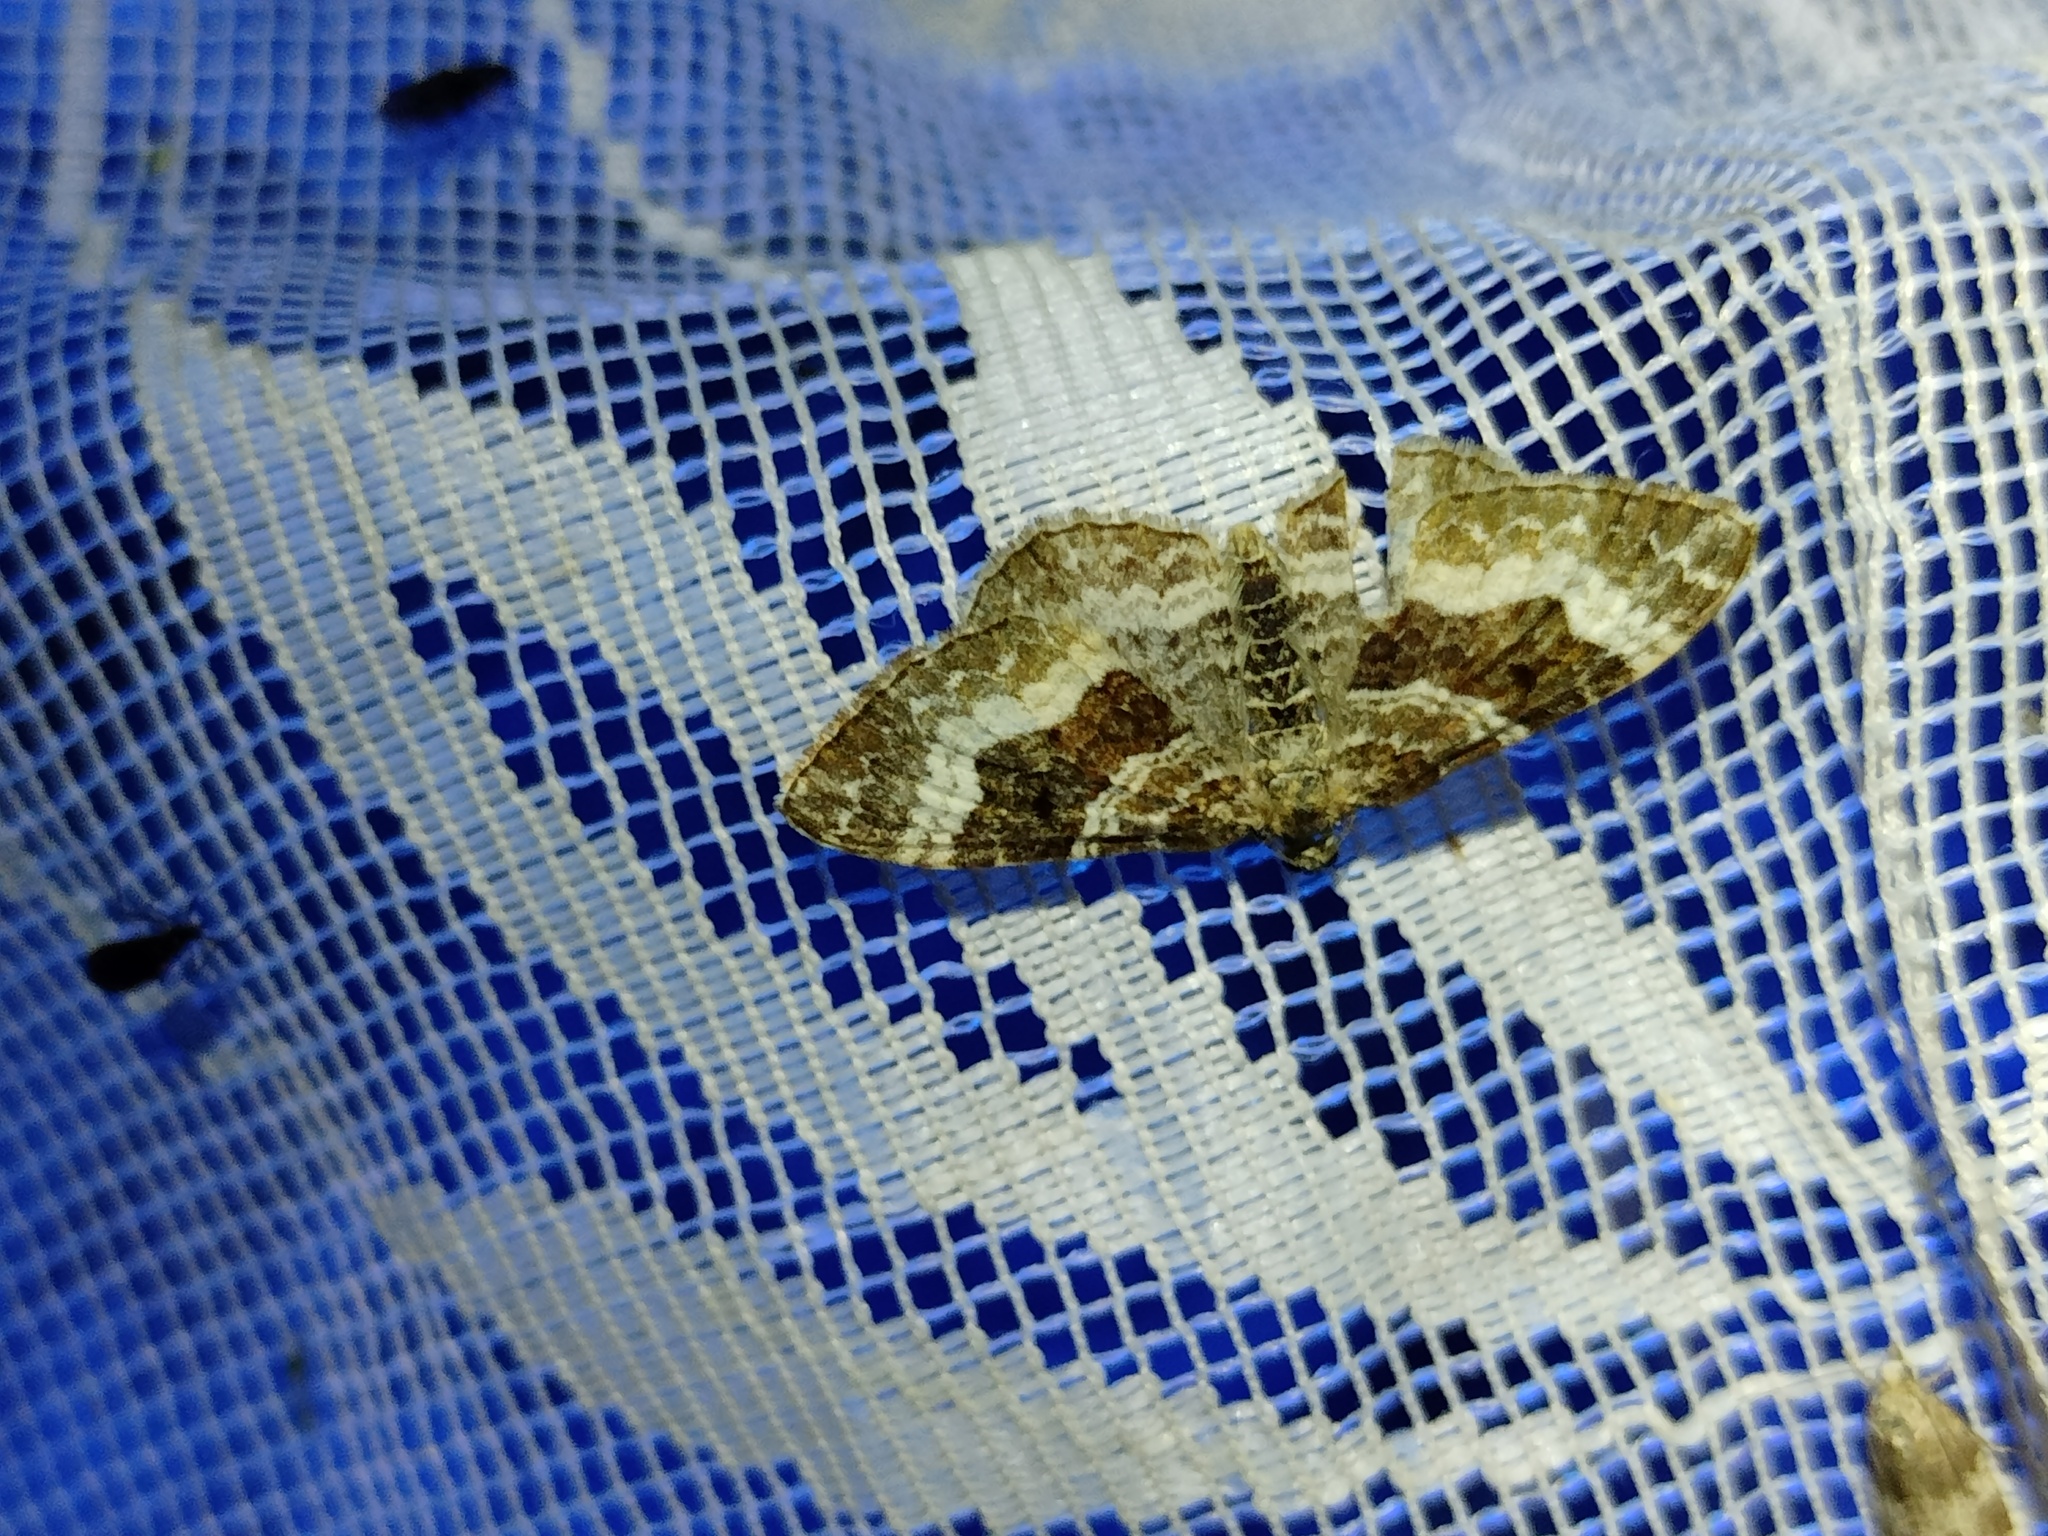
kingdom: Animalia
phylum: Arthropoda
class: Insecta
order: Lepidoptera
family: Geometridae
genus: Epirrhoe
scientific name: Epirrhoe alternata
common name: Common carpet
